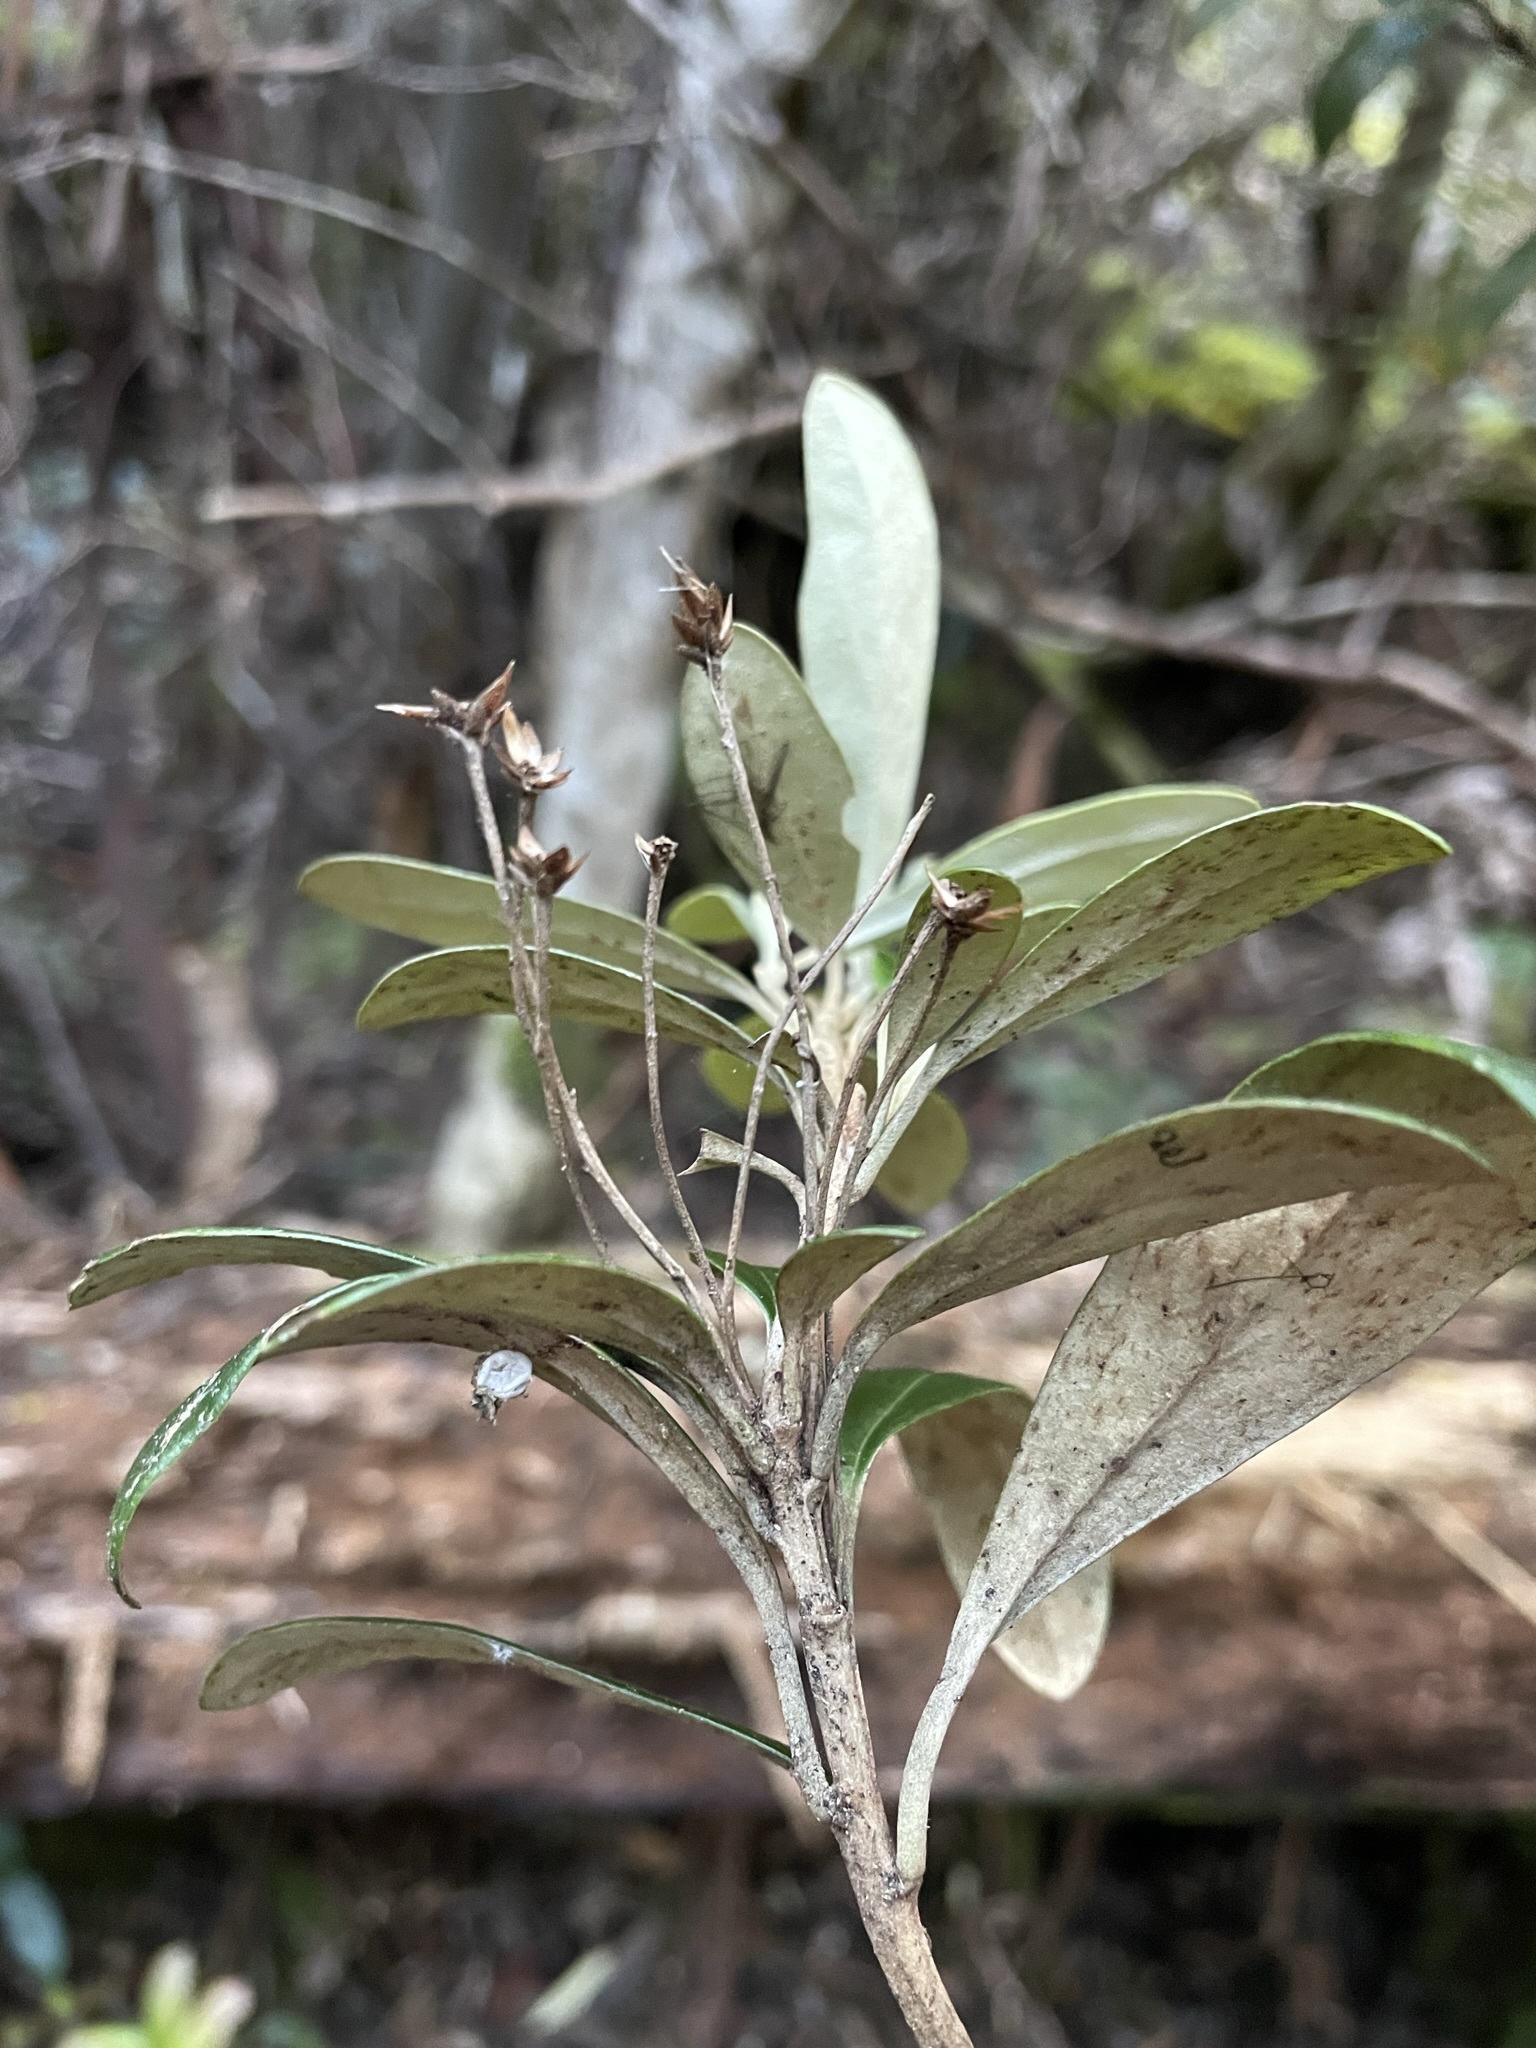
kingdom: Plantae
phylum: Tracheophyta
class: Magnoliopsida
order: Asterales
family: Asteraceae
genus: Olearia
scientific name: Olearia persoonioides
